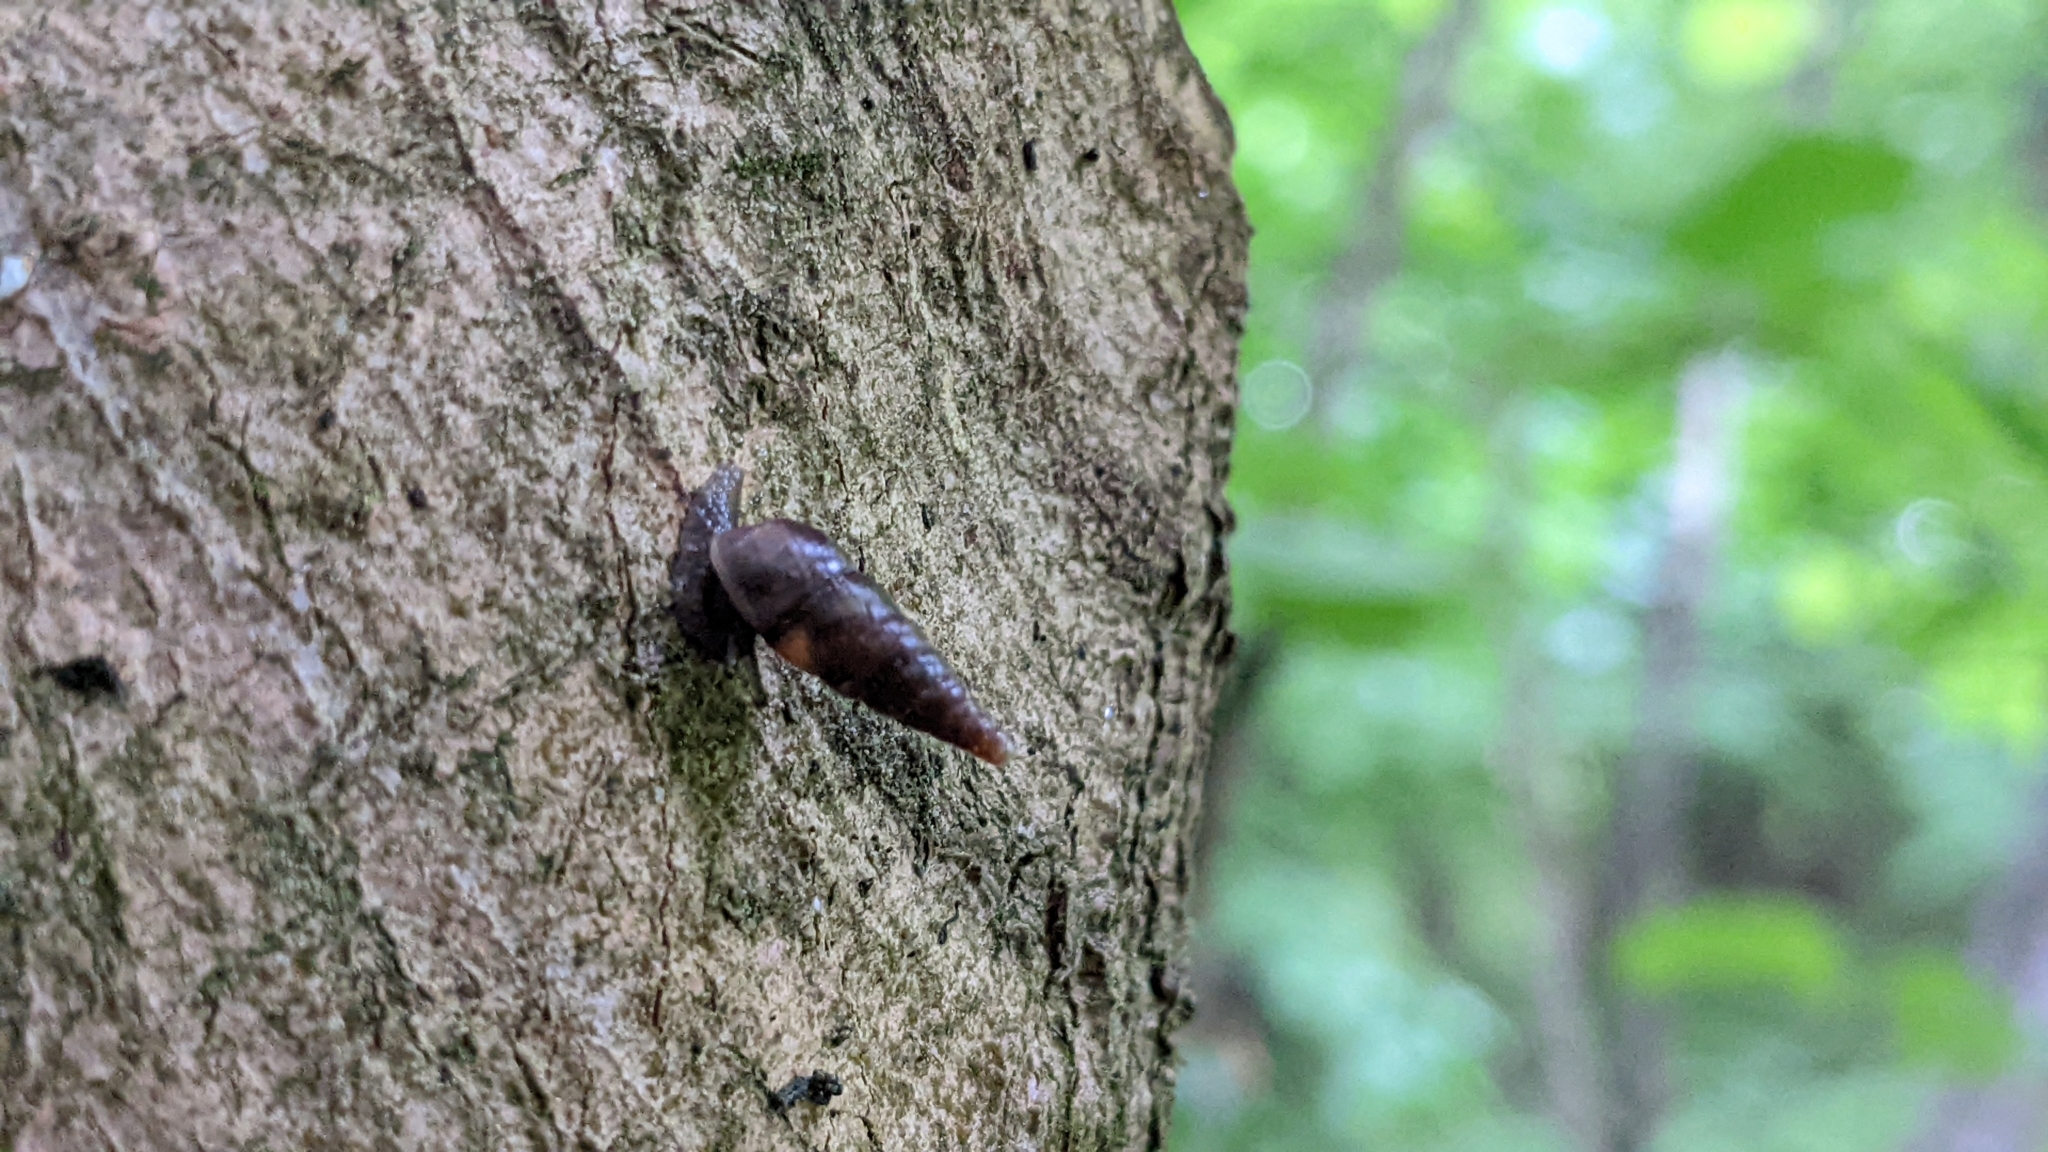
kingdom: Animalia
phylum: Mollusca
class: Gastropoda
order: Stylommatophora
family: Clausiliidae
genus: Cochlodina
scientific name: Cochlodina laminata
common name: Plaited door snail
